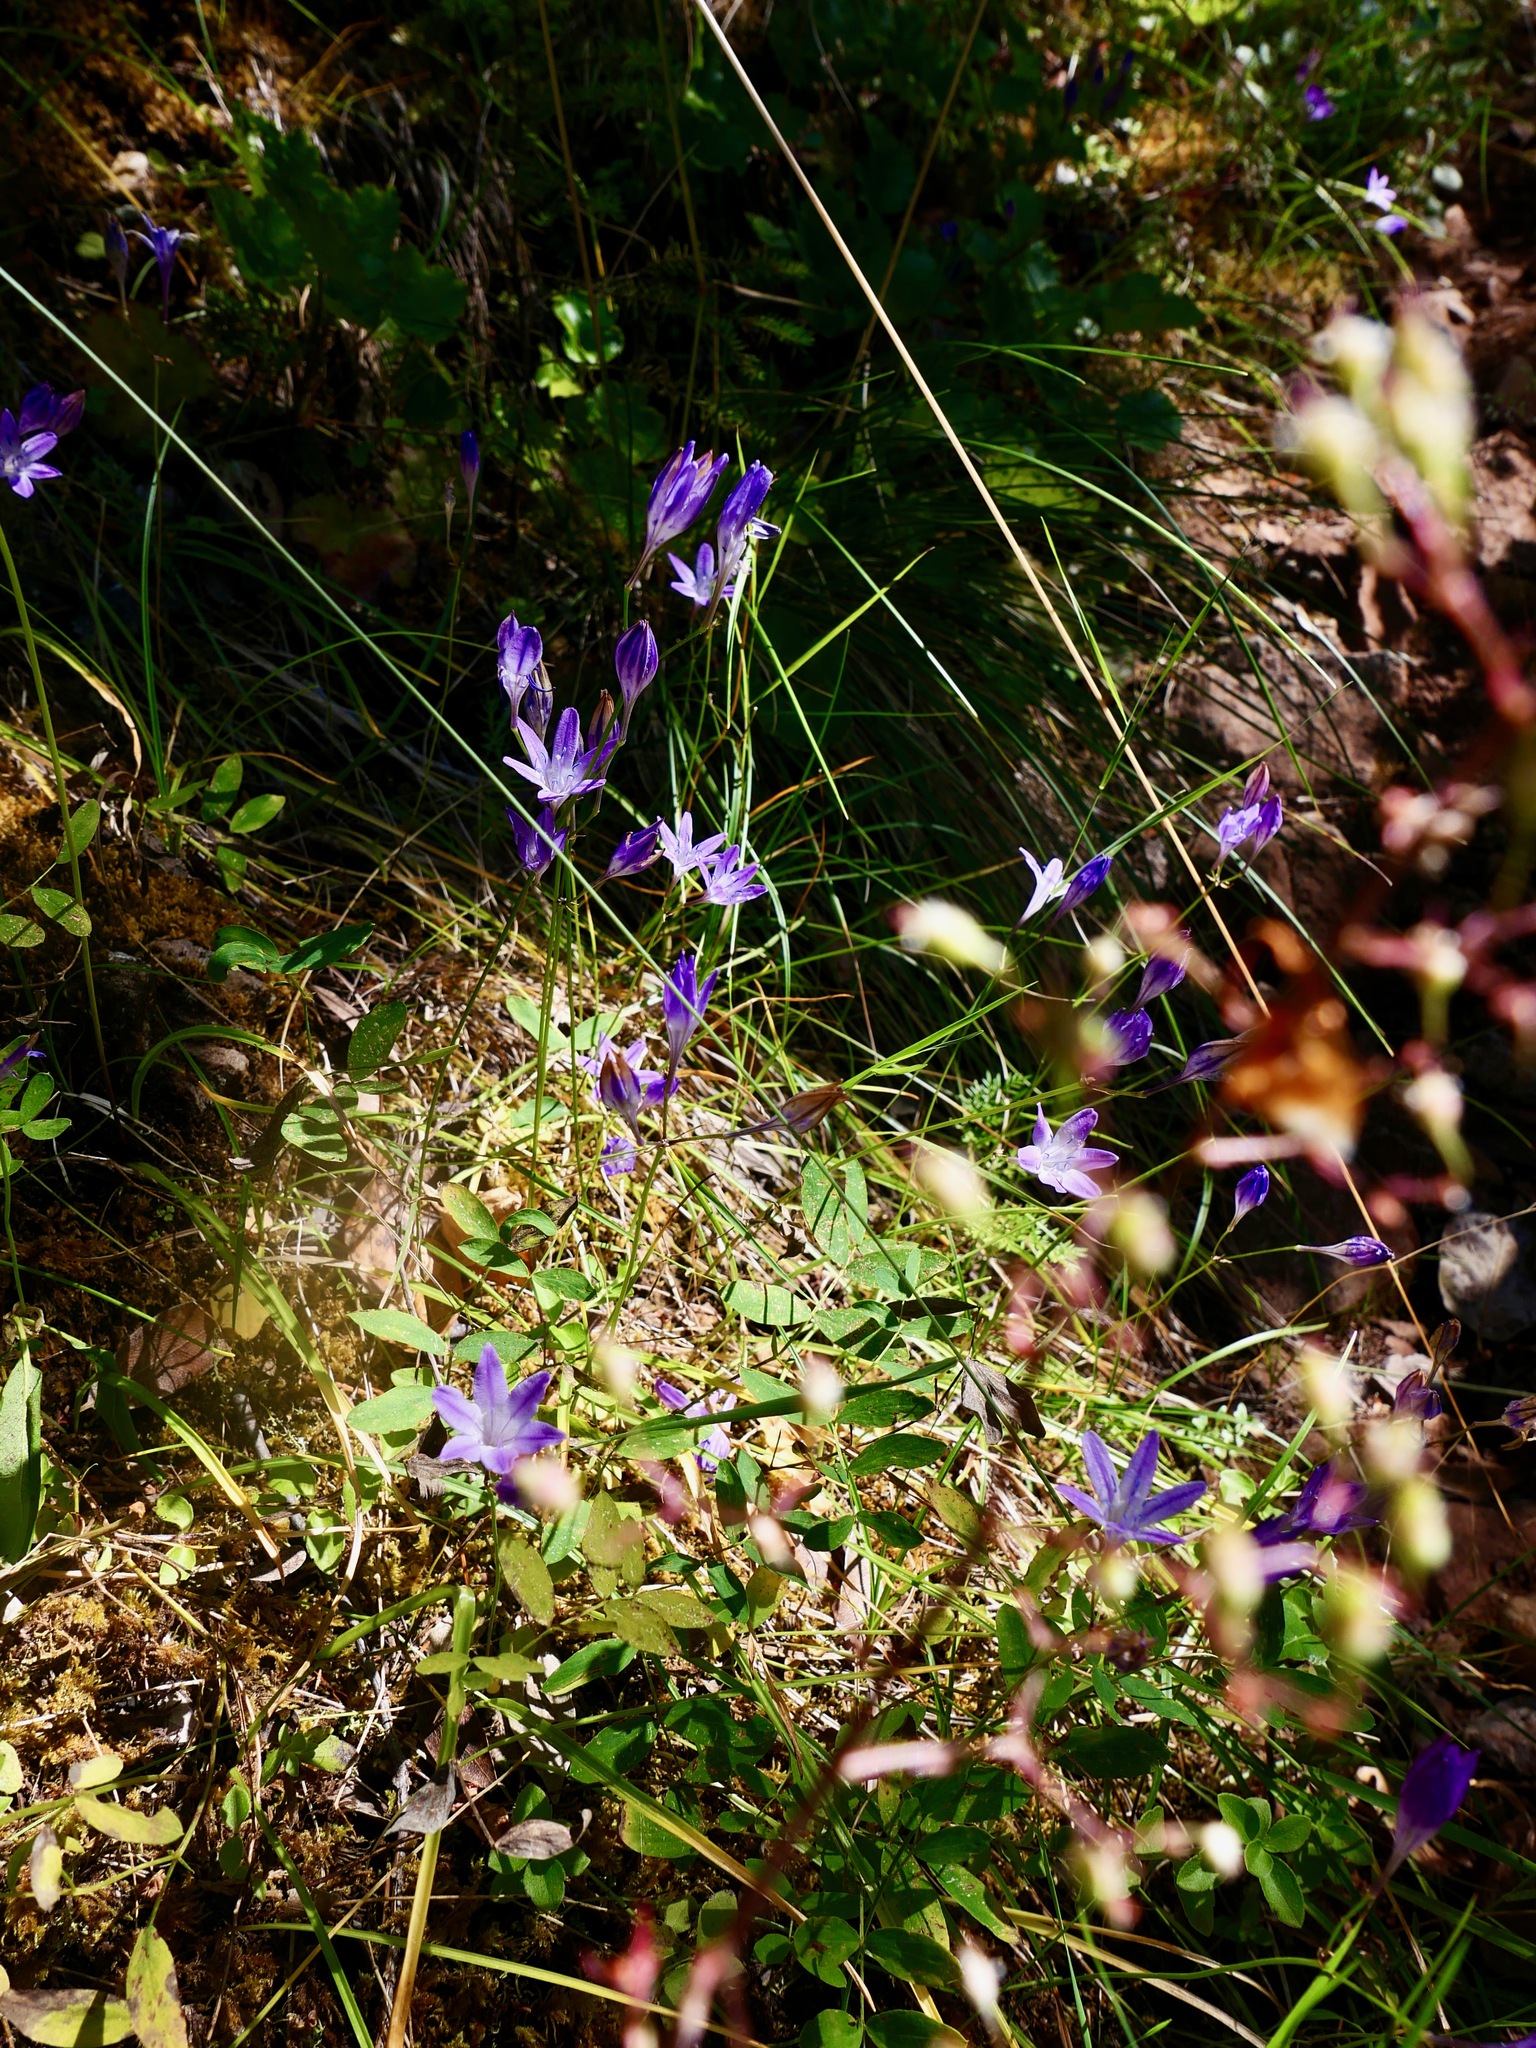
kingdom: Plantae
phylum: Tracheophyta
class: Liliopsida
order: Asparagales
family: Asparagaceae
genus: Triteleia
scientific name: Triteleia bridgesii
